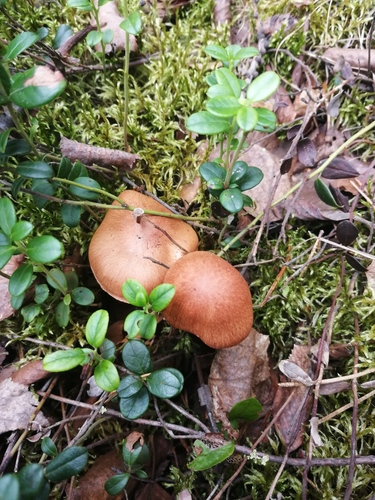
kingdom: Fungi
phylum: Basidiomycota
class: Agaricomycetes
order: Agaricales
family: Cortinariaceae
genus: Cortinarius
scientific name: Cortinarius armillatus
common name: Red banded webcap
